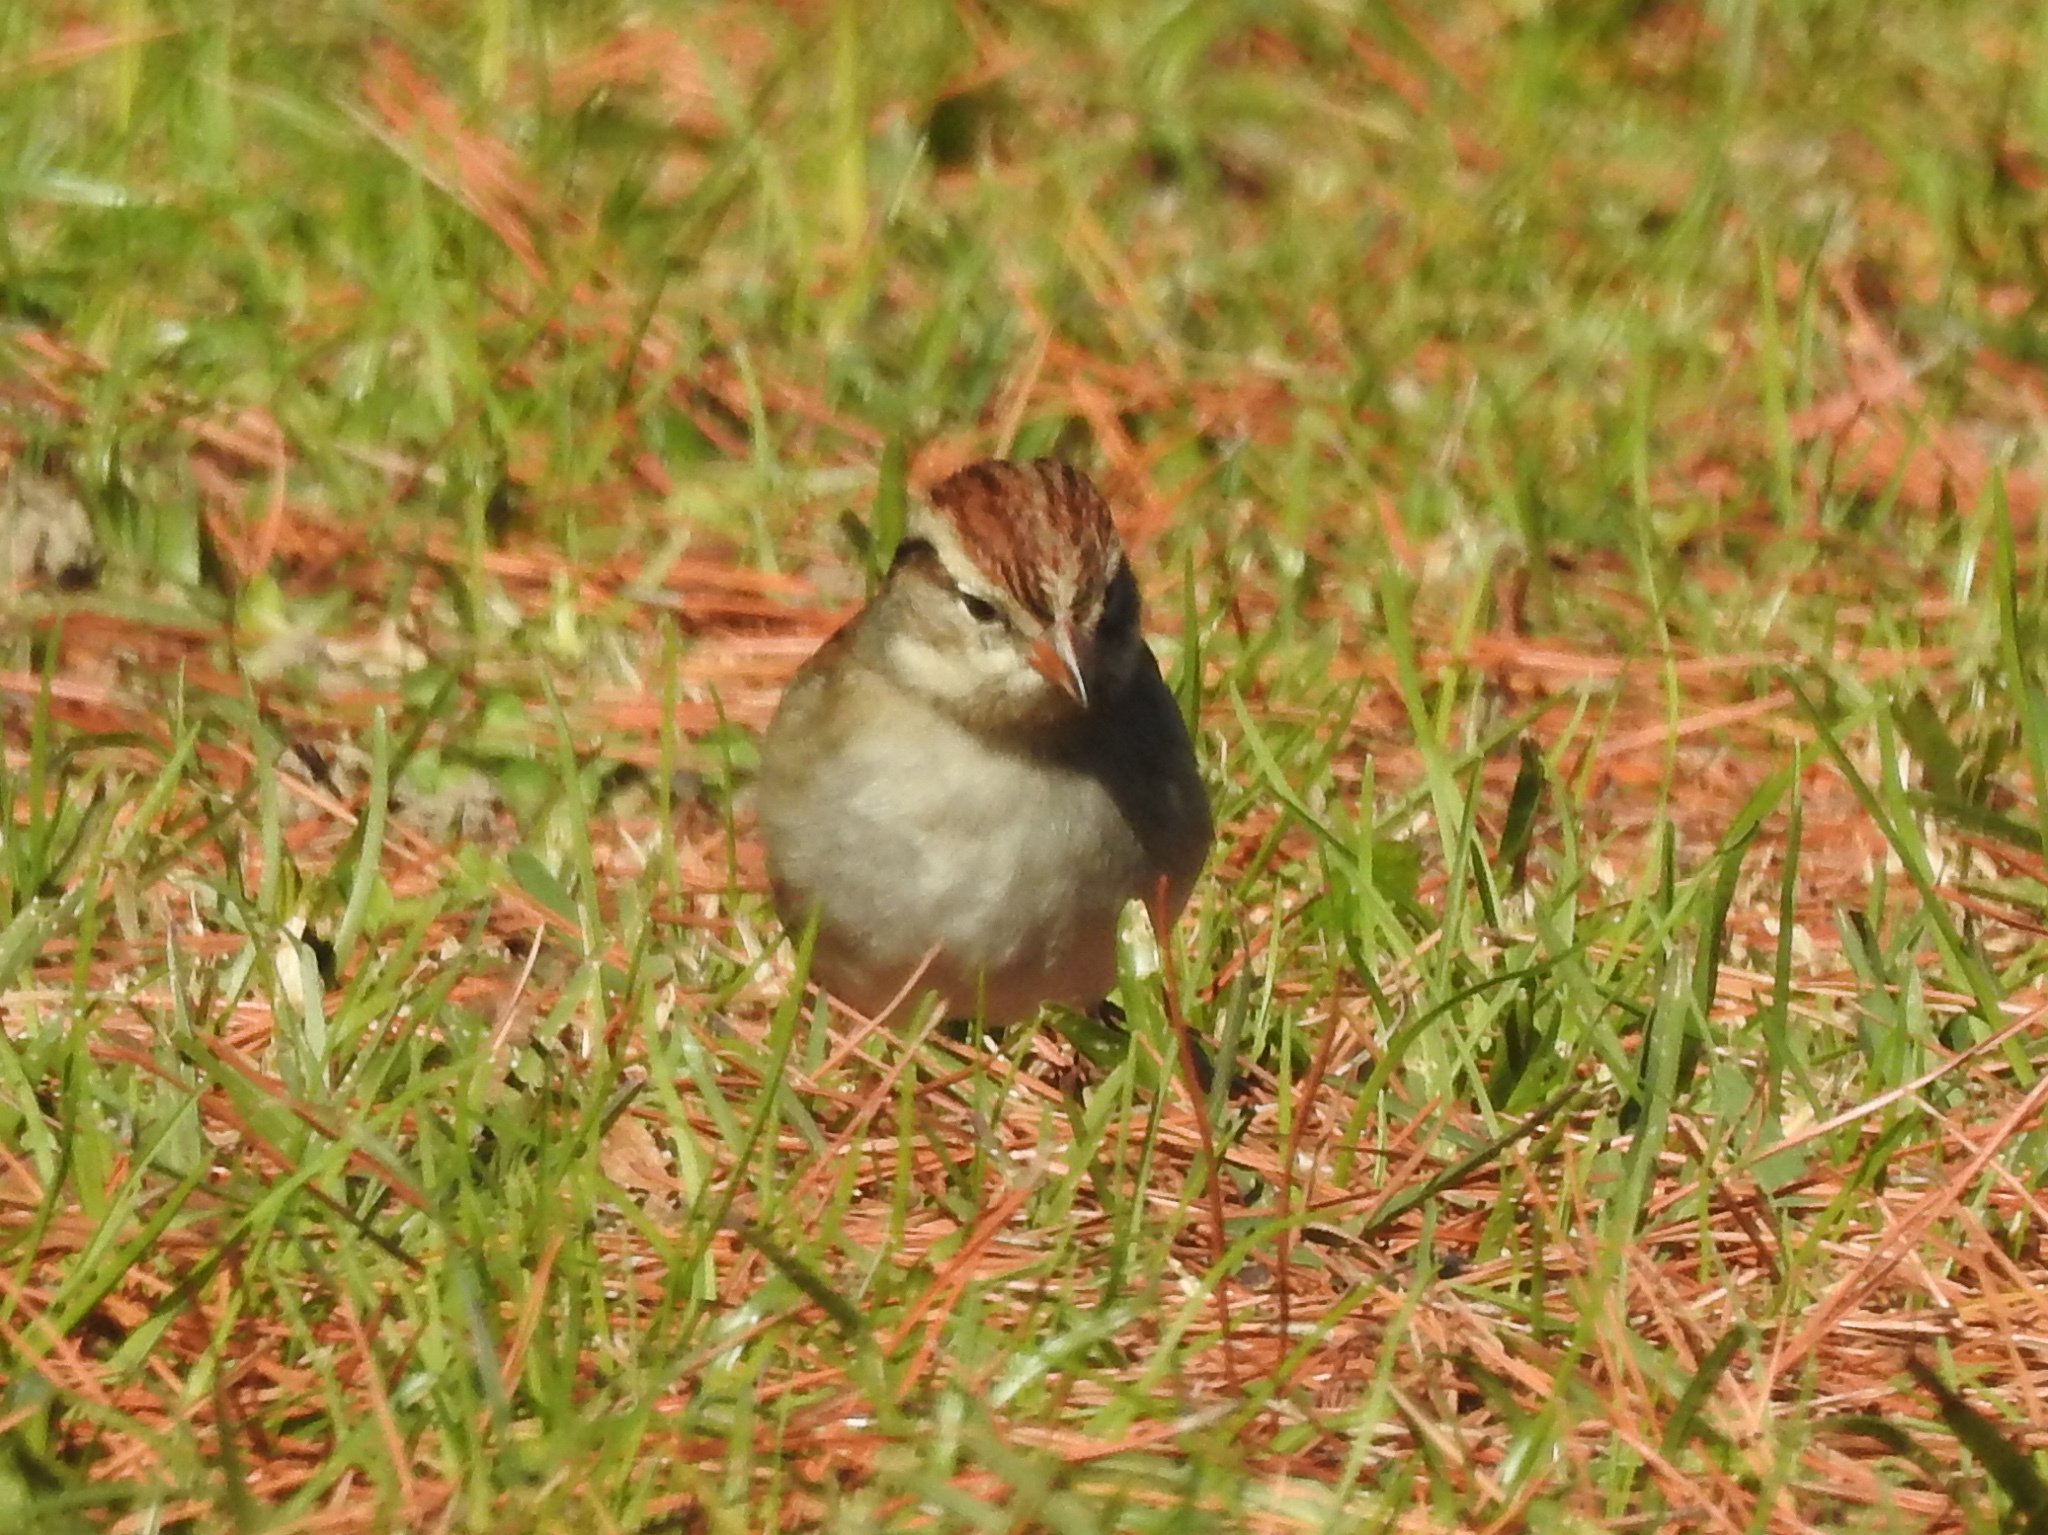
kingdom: Animalia
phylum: Chordata
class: Aves
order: Passeriformes
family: Passerellidae
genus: Spizella
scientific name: Spizella passerina
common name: Chipping sparrow
